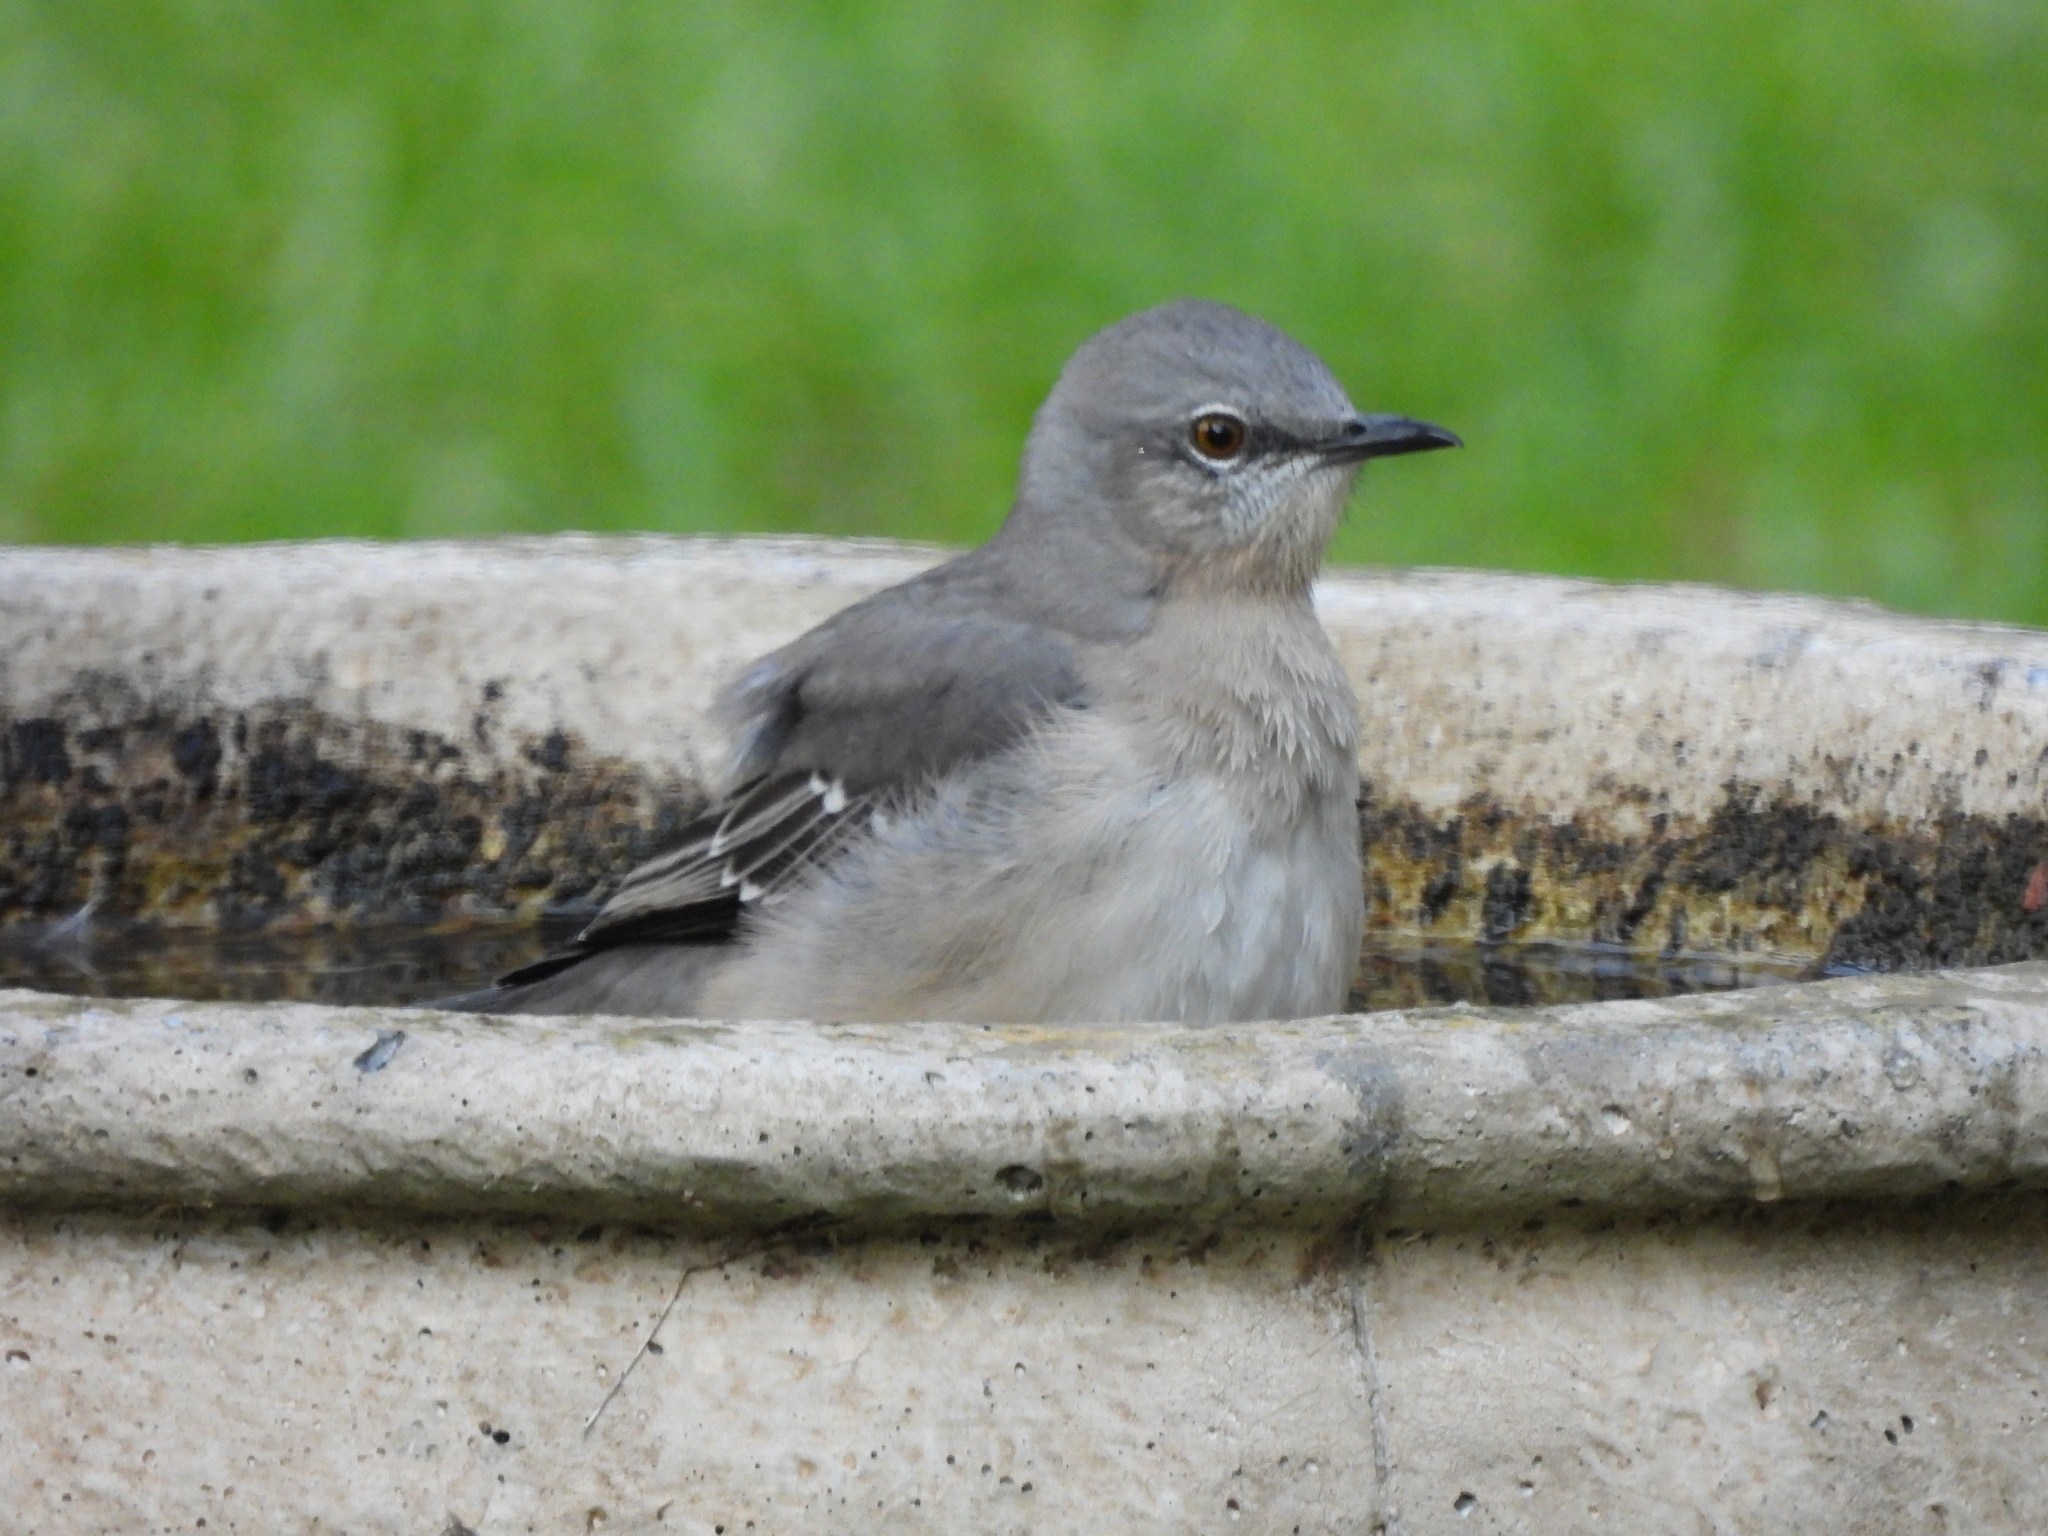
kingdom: Animalia
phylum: Chordata
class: Aves
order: Passeriformes
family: Mimidae
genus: Mimus
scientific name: Mimus polyglottos
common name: Northern mockingbird
